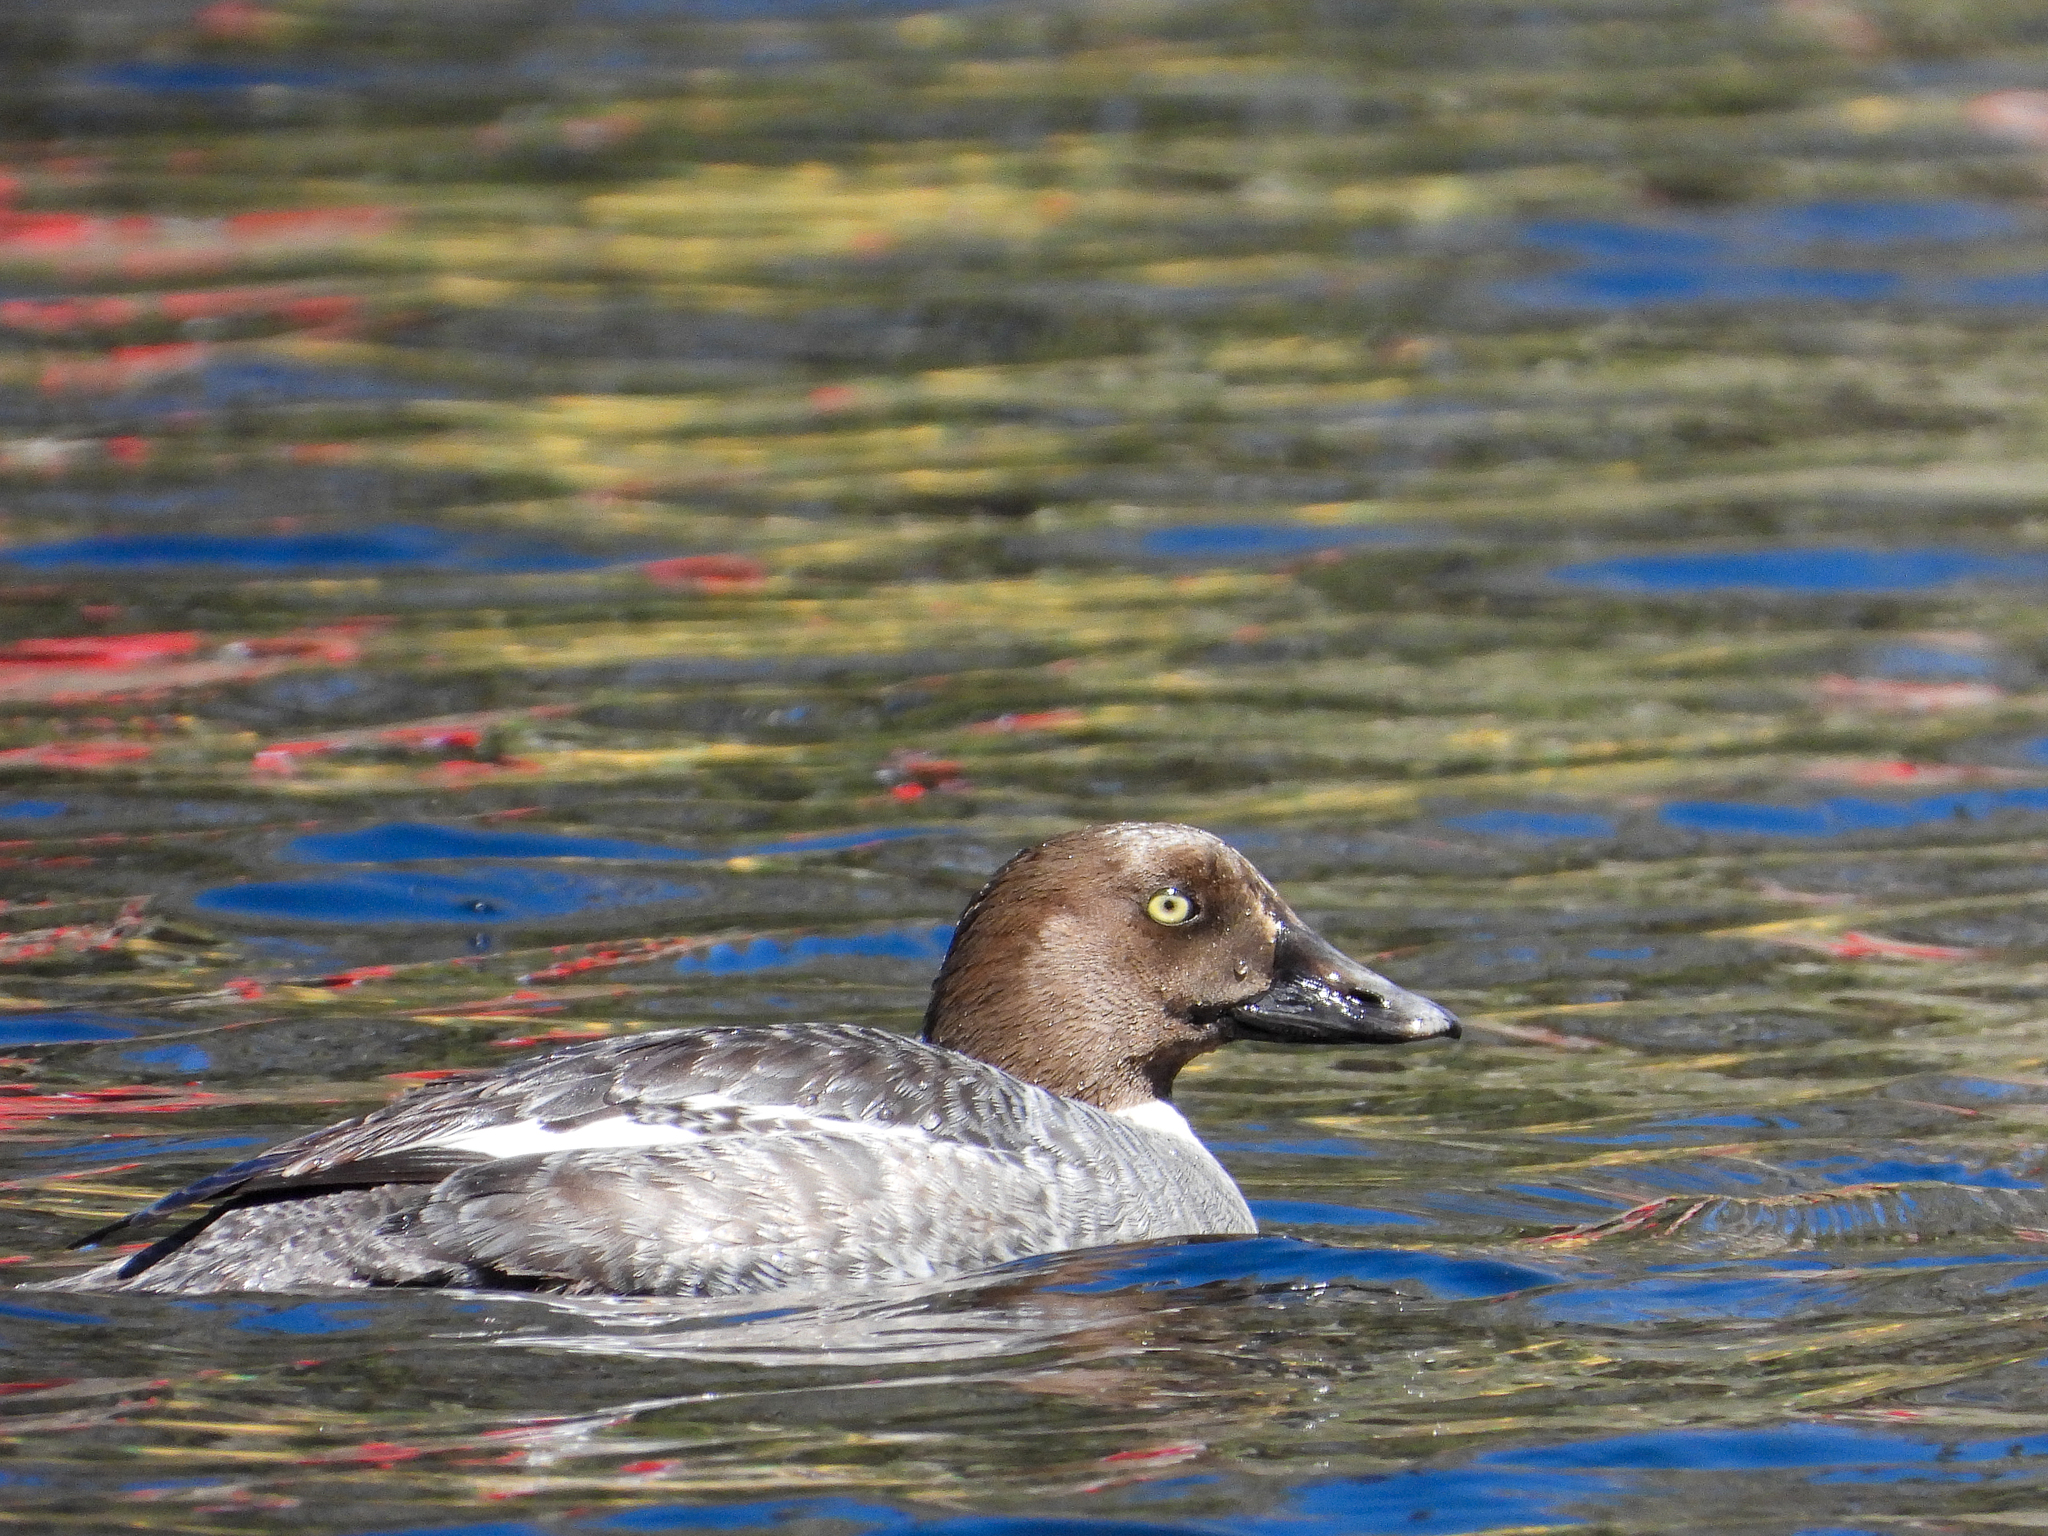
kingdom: Animalia
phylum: Chordata
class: Aves
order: Anseriformes
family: Anatidae
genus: Bucephala
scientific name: Bucephala clangula
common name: Common goldeneye
